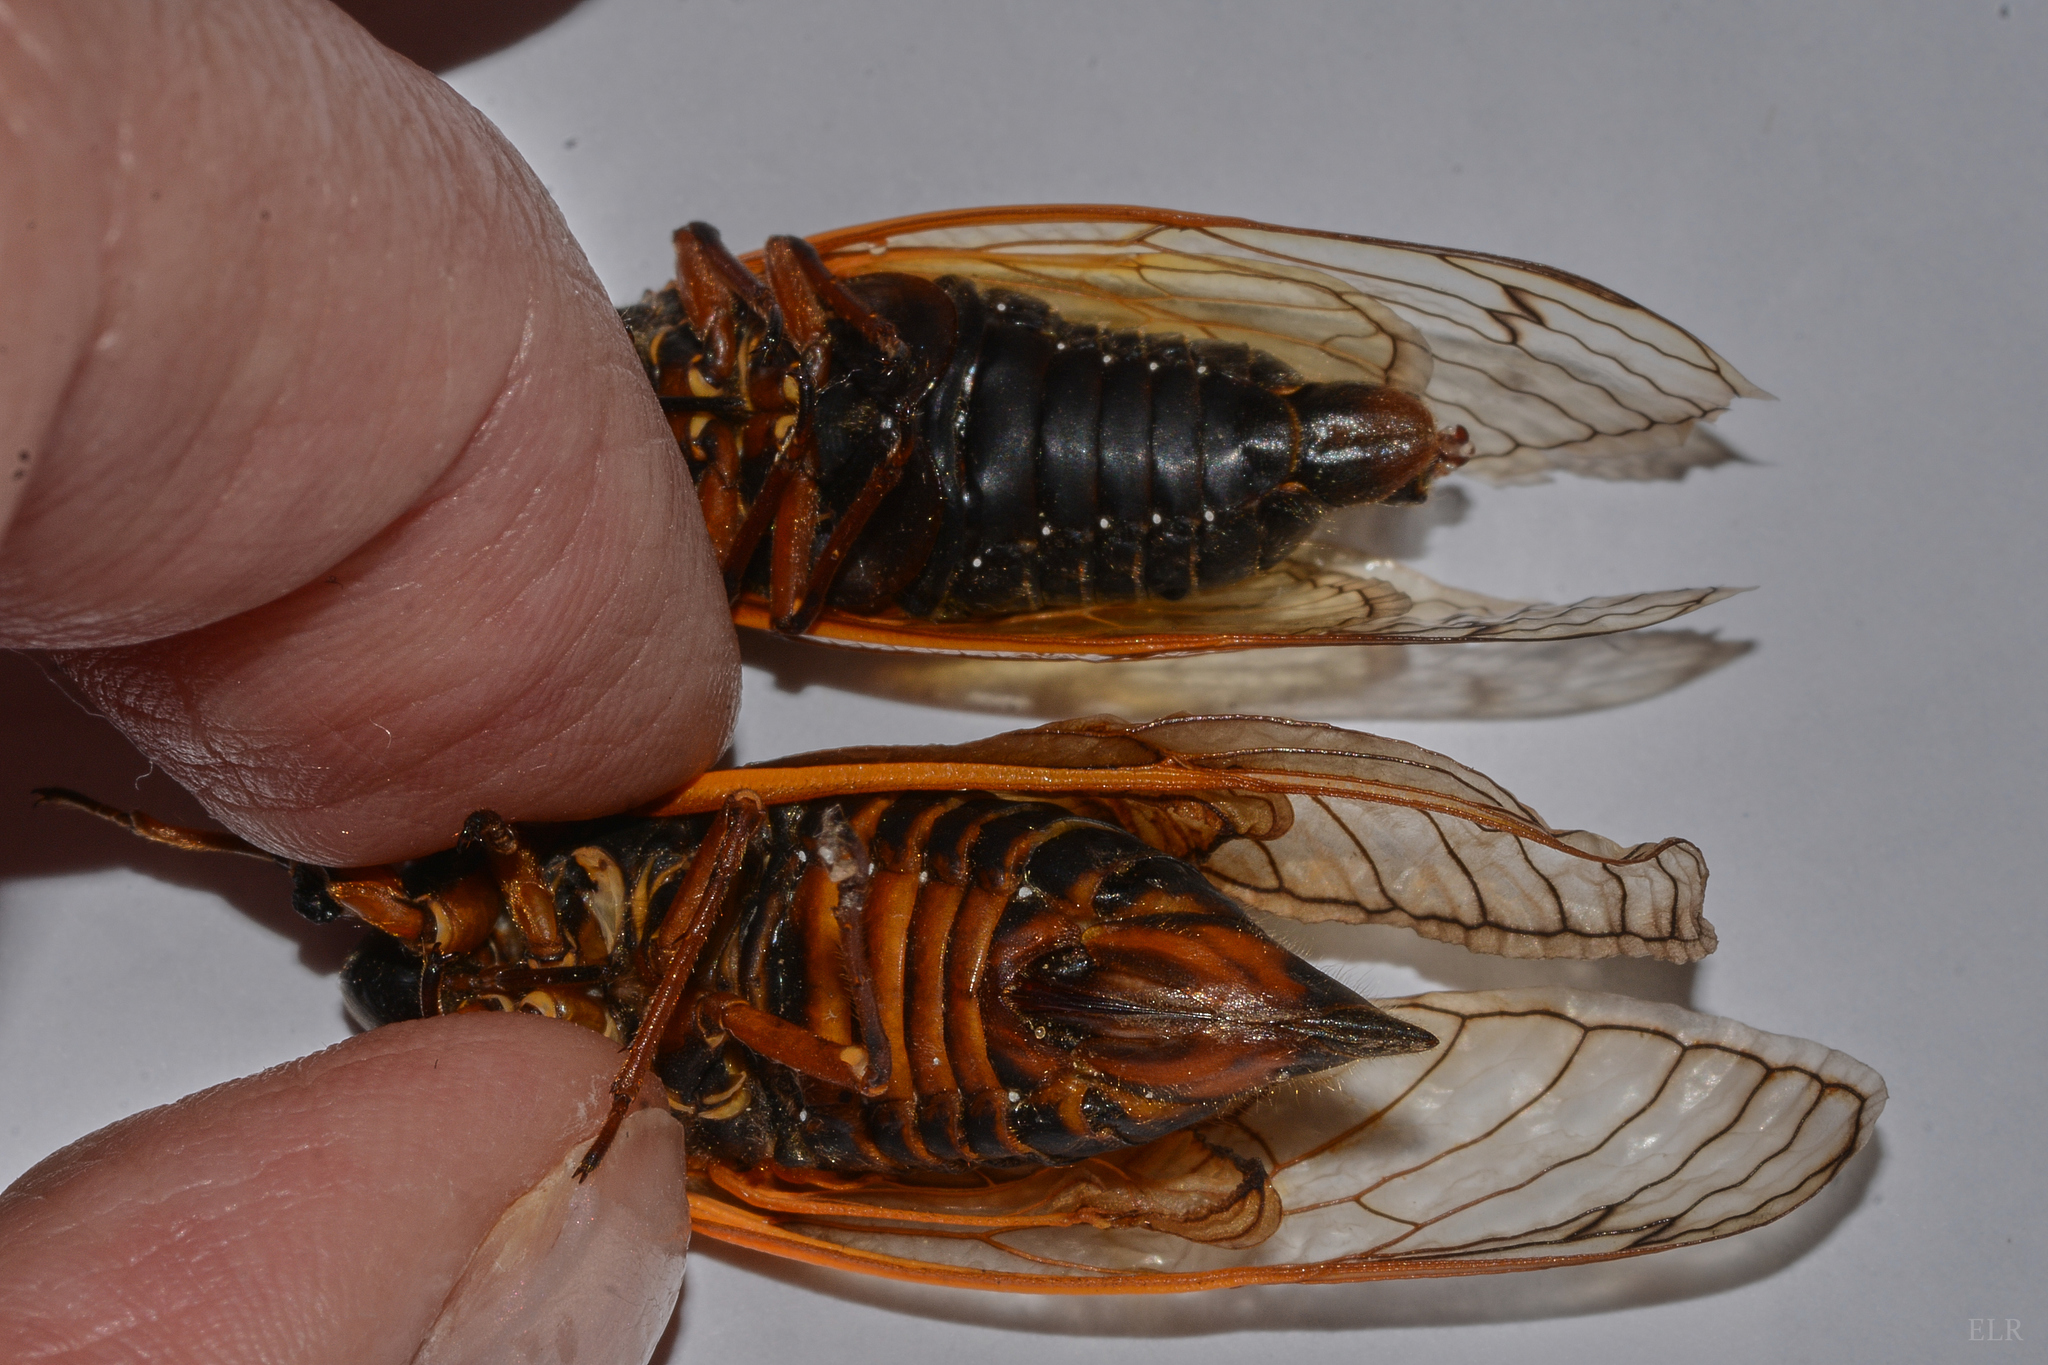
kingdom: Animalia
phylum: Arthropoda
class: Insecta
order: Hemiptera
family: Cicadidae
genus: Magicicada
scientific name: Magicicada septendecim
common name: Periodical cicada
